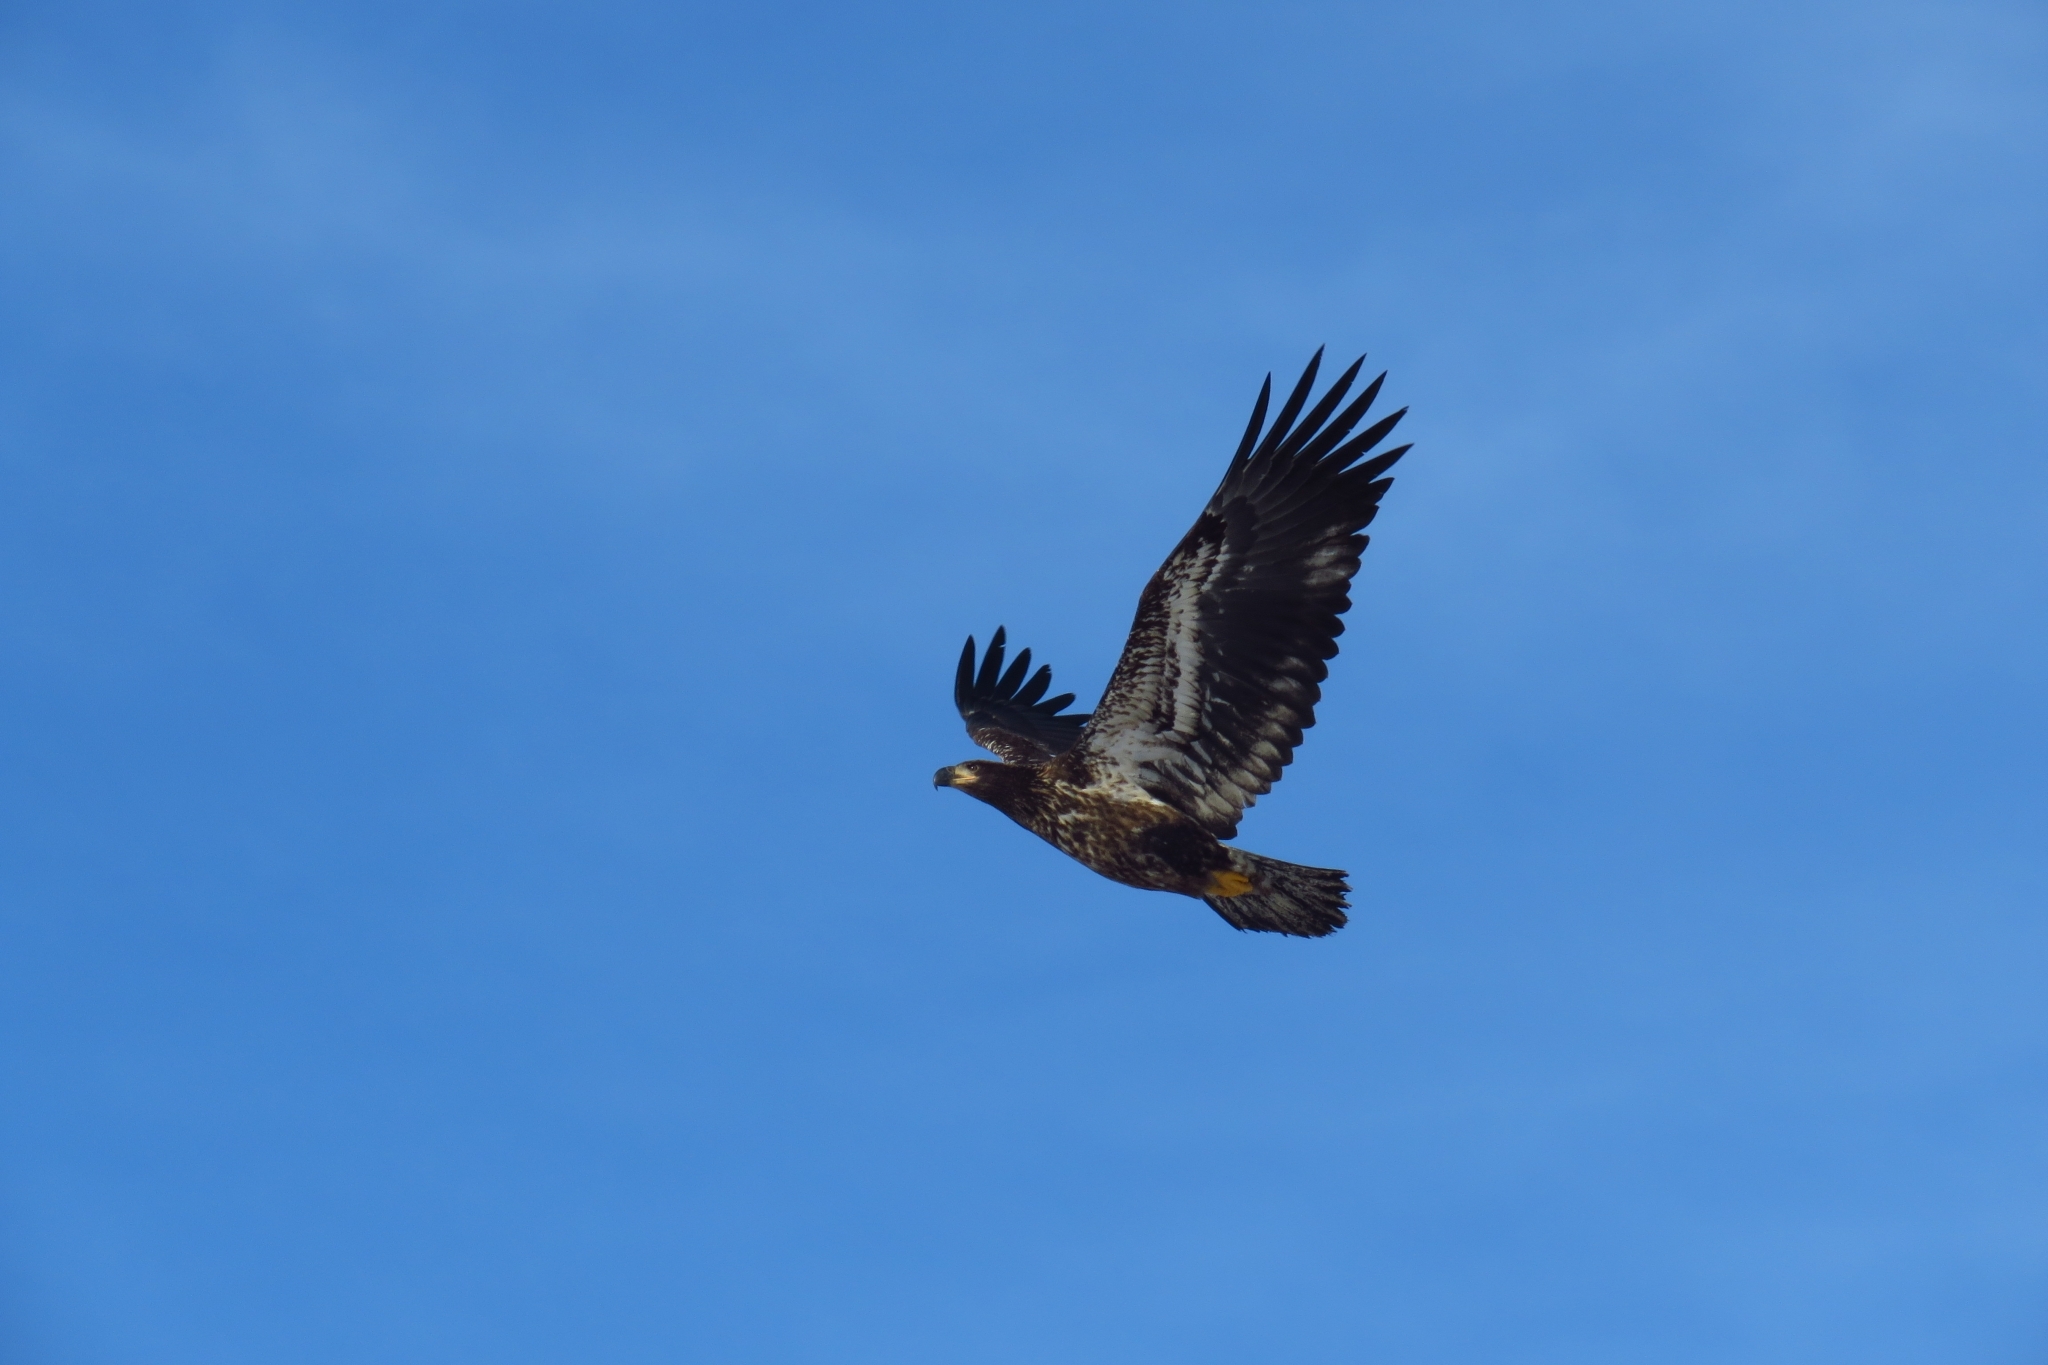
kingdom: Animalia
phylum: Chordata
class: Aves
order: Accipitriformes
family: Accipitridae
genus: Haliaeetus
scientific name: Haliaeetus leucocephalus
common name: Bald eagle
